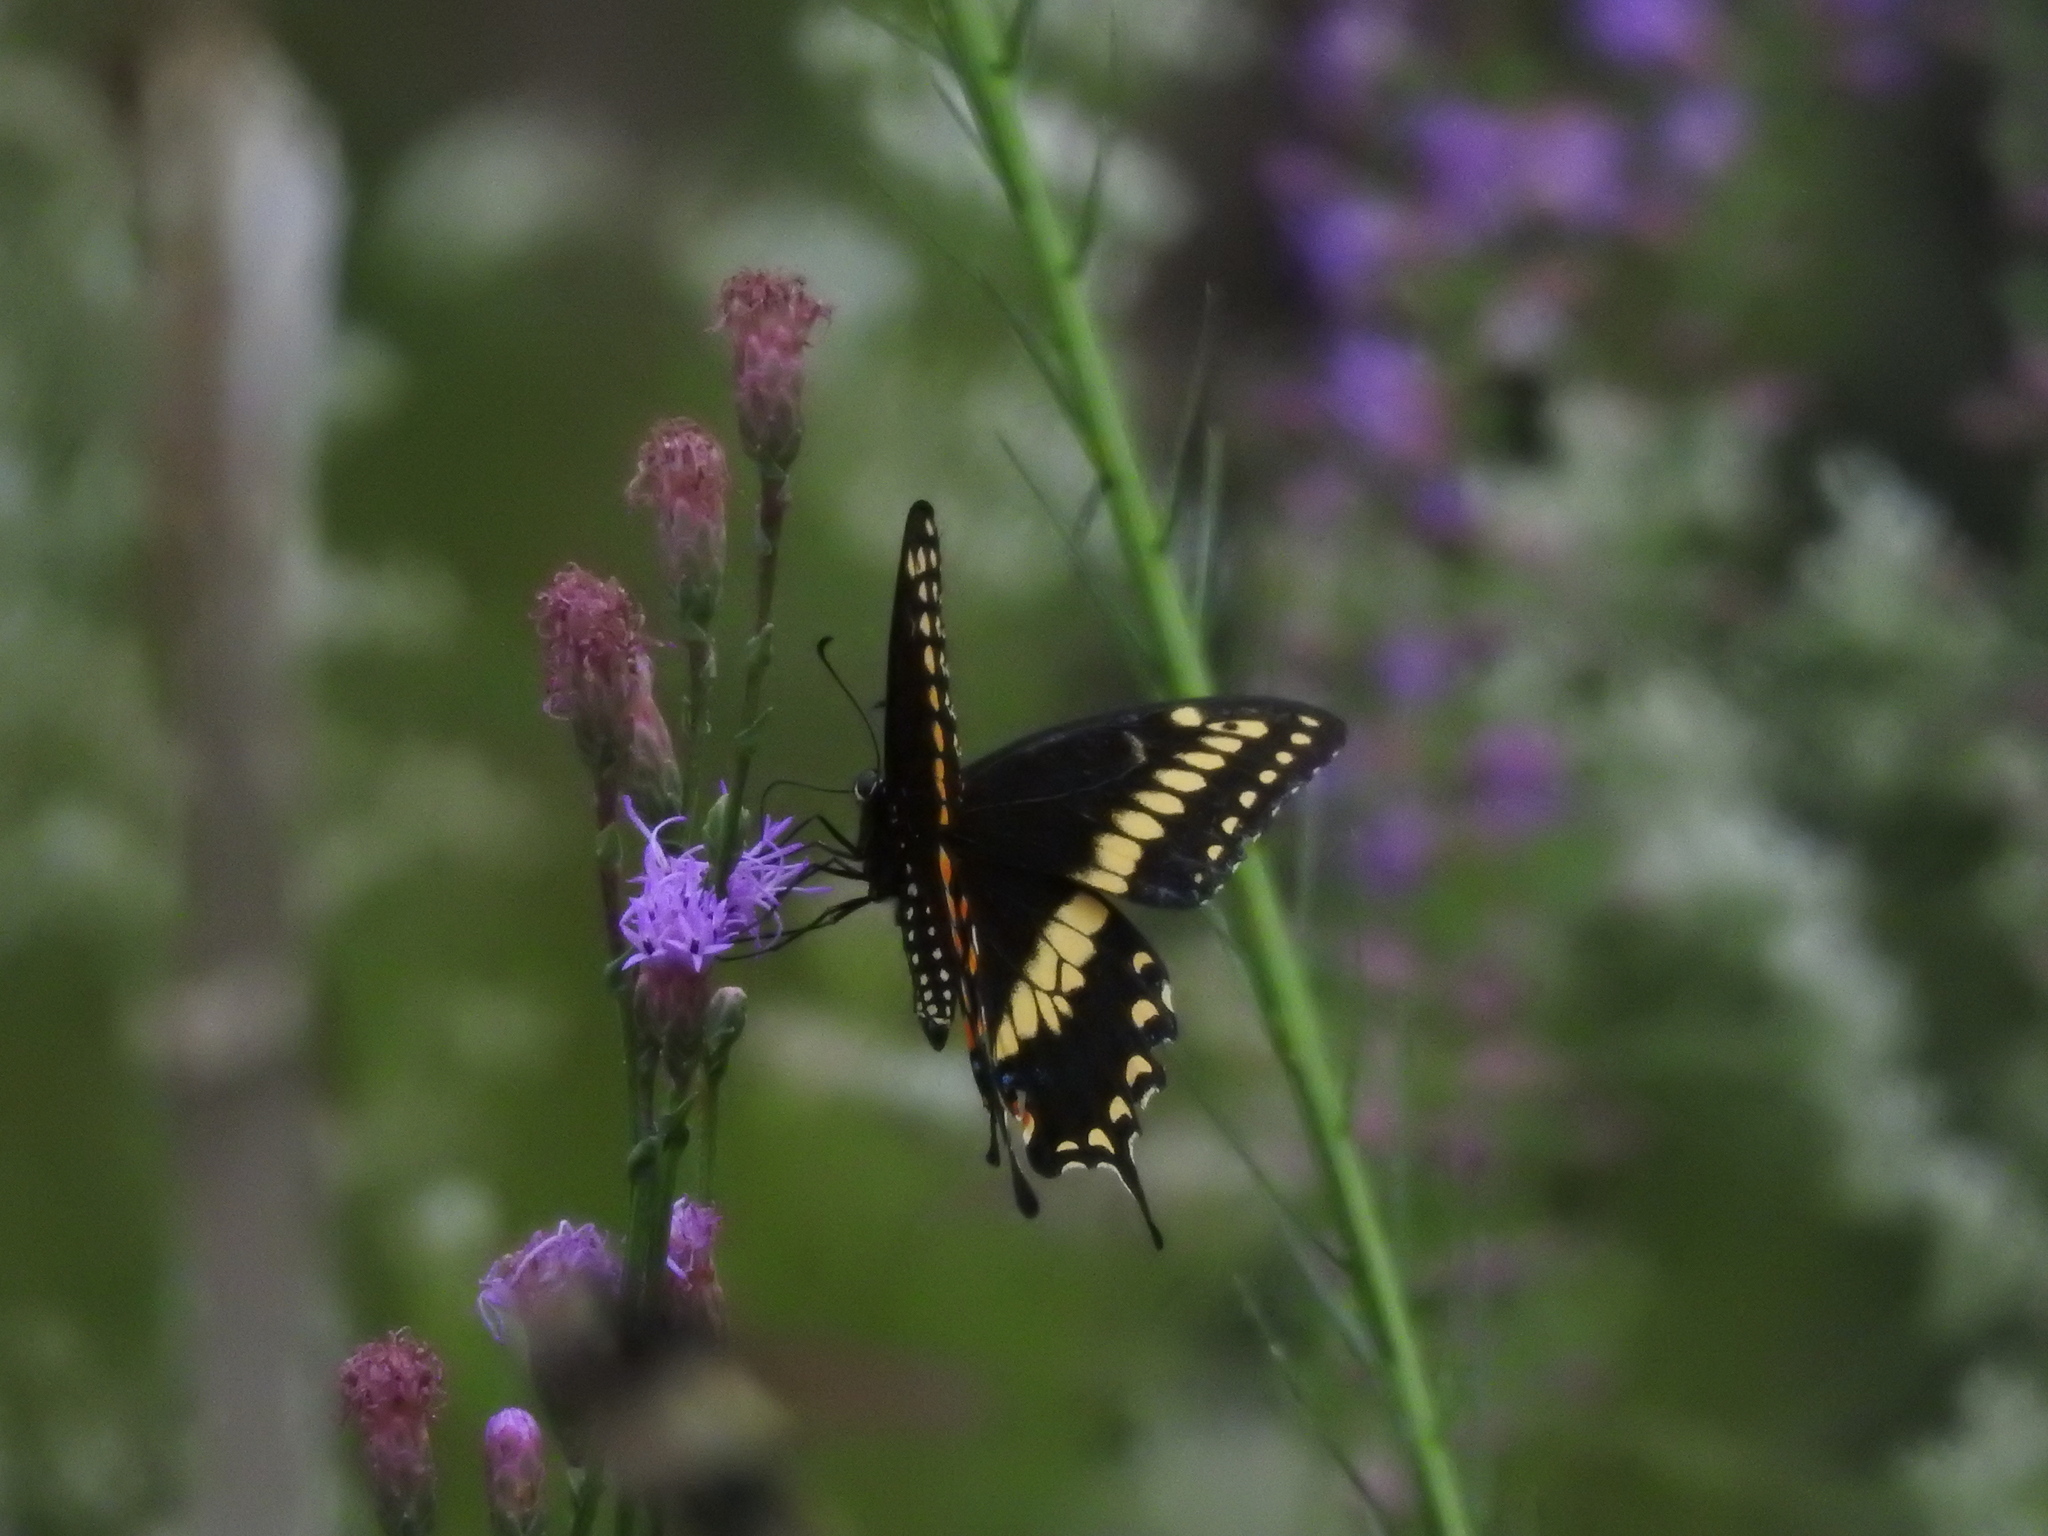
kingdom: Animalia
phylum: Arthropoda
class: Insecta
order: Lepidoptera
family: Papilionidae
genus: Papilio
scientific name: Papilio polyxenes
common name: Black swallowtail
